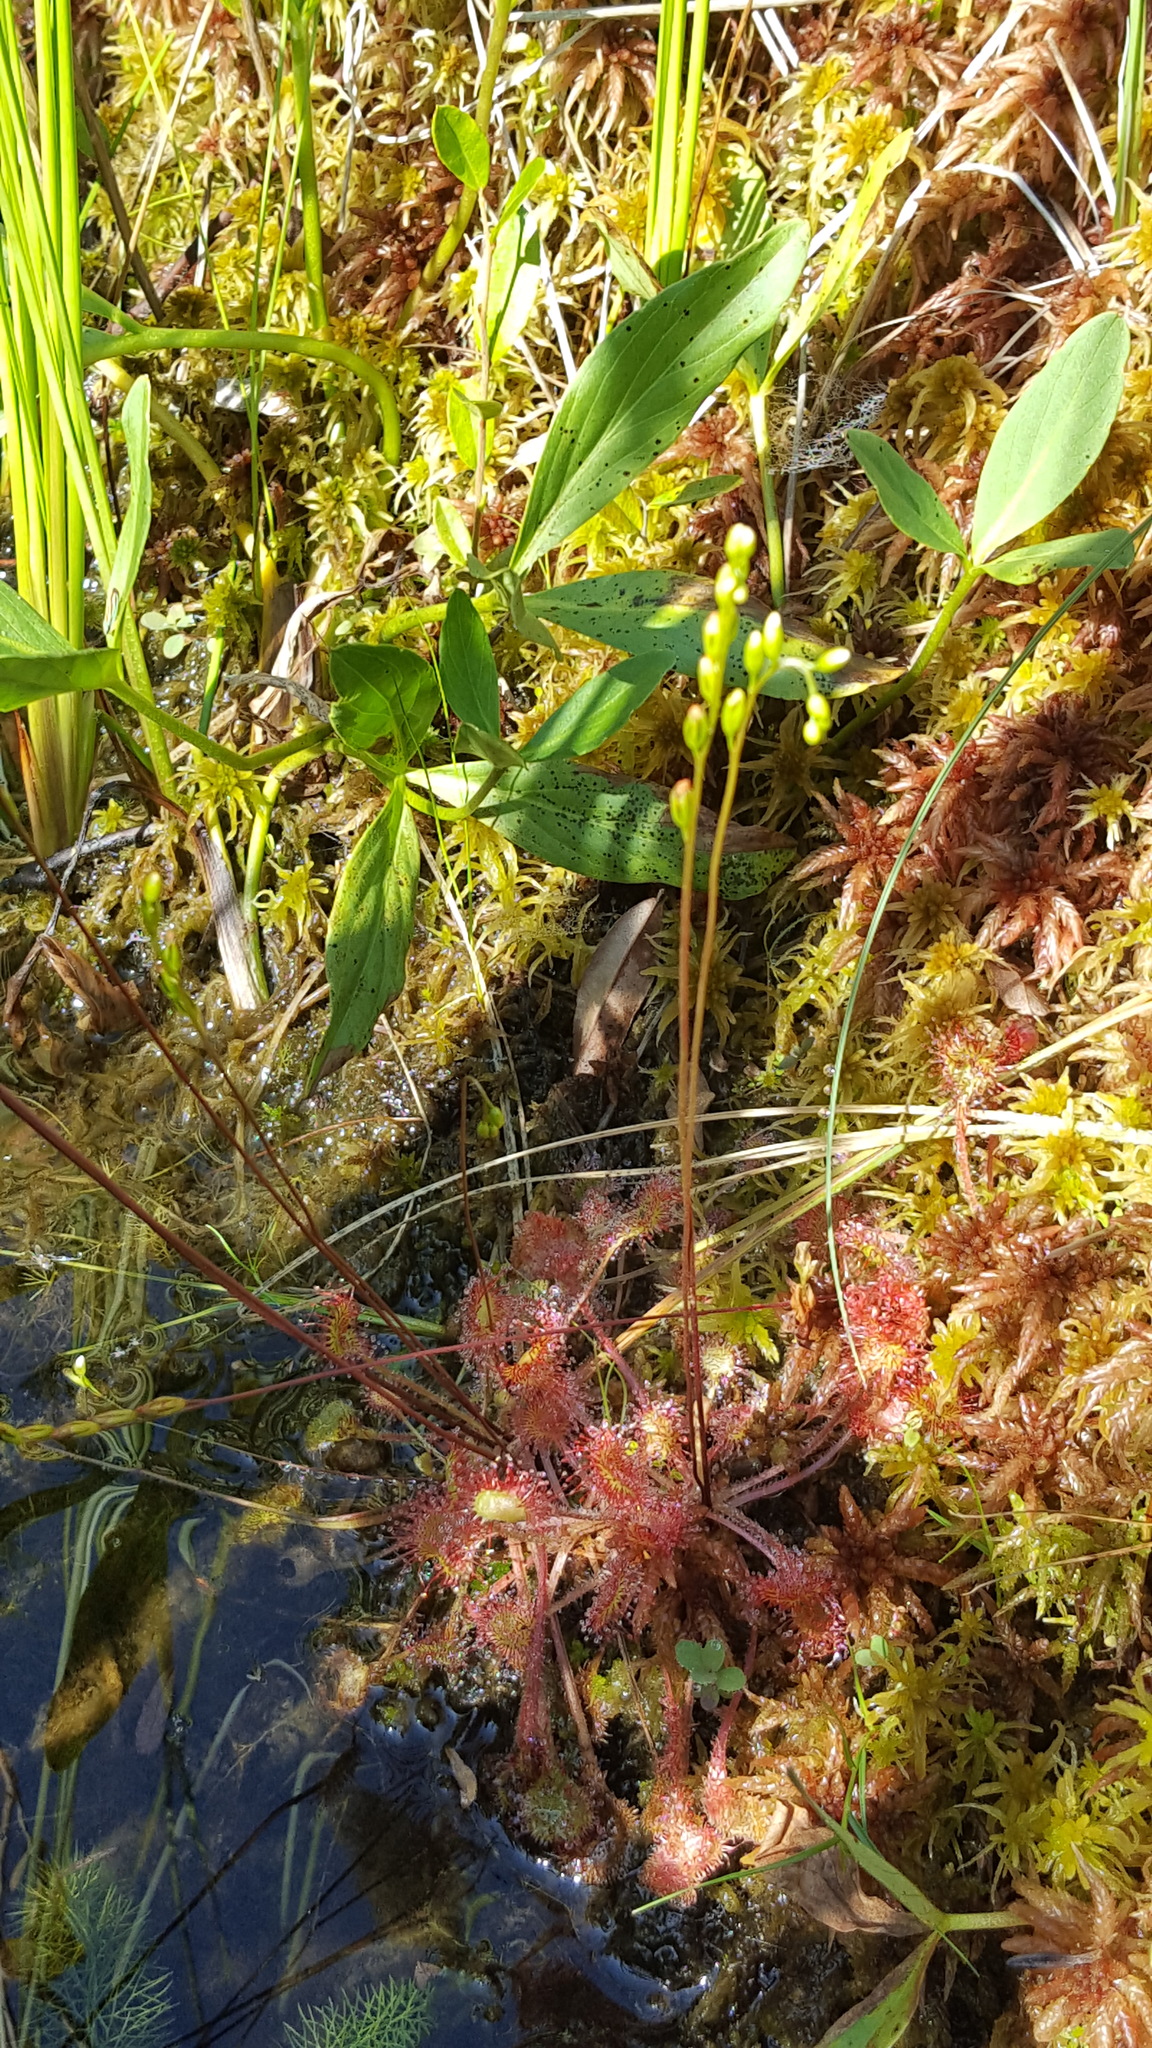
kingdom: Plantae
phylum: Tracheophyta
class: Magnoliopsida
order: Caryophyllales
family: Droseraceae
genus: Drosera
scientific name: Drosera rotundifolia
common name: Round-leaved sundew
